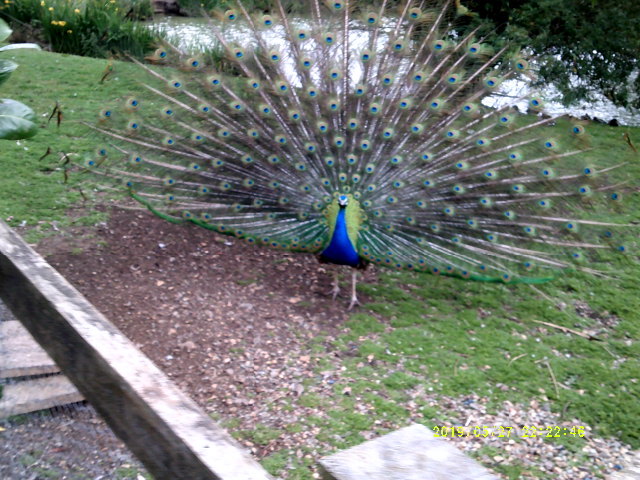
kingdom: Animalia
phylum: Chordata
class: Aves
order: Galliformes
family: Phasianidae
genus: Pavo
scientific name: Pavo cristatus
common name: Indian peafowl
